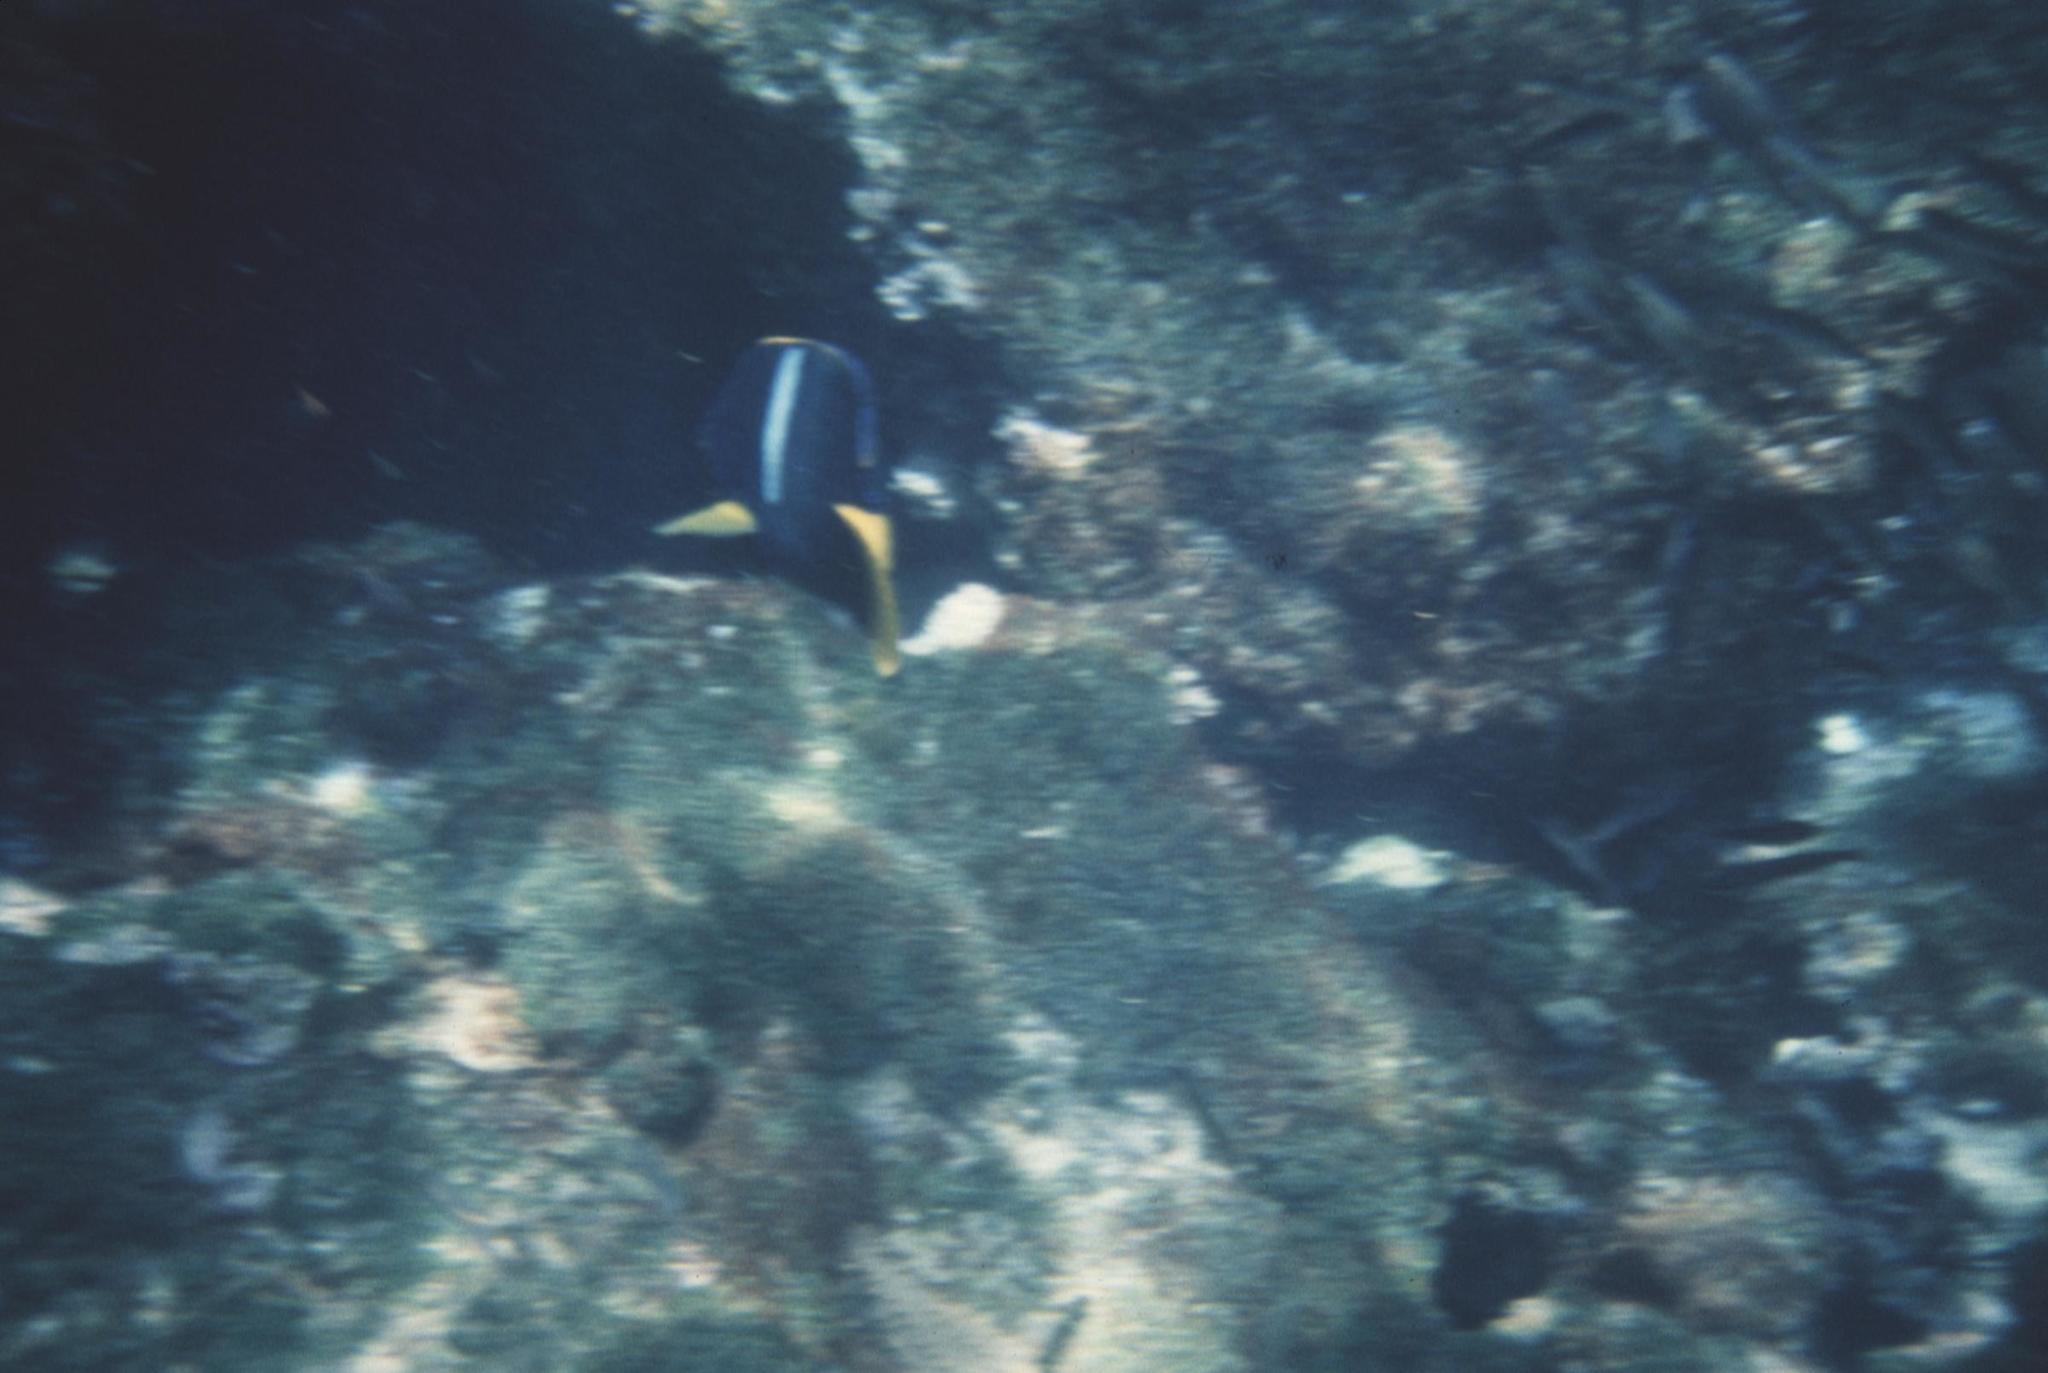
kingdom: Animalia
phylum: Chordata
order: Perciformes
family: Pomacanthidae
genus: Holacanthus
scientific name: Holacanthus passer
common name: King angelfish
